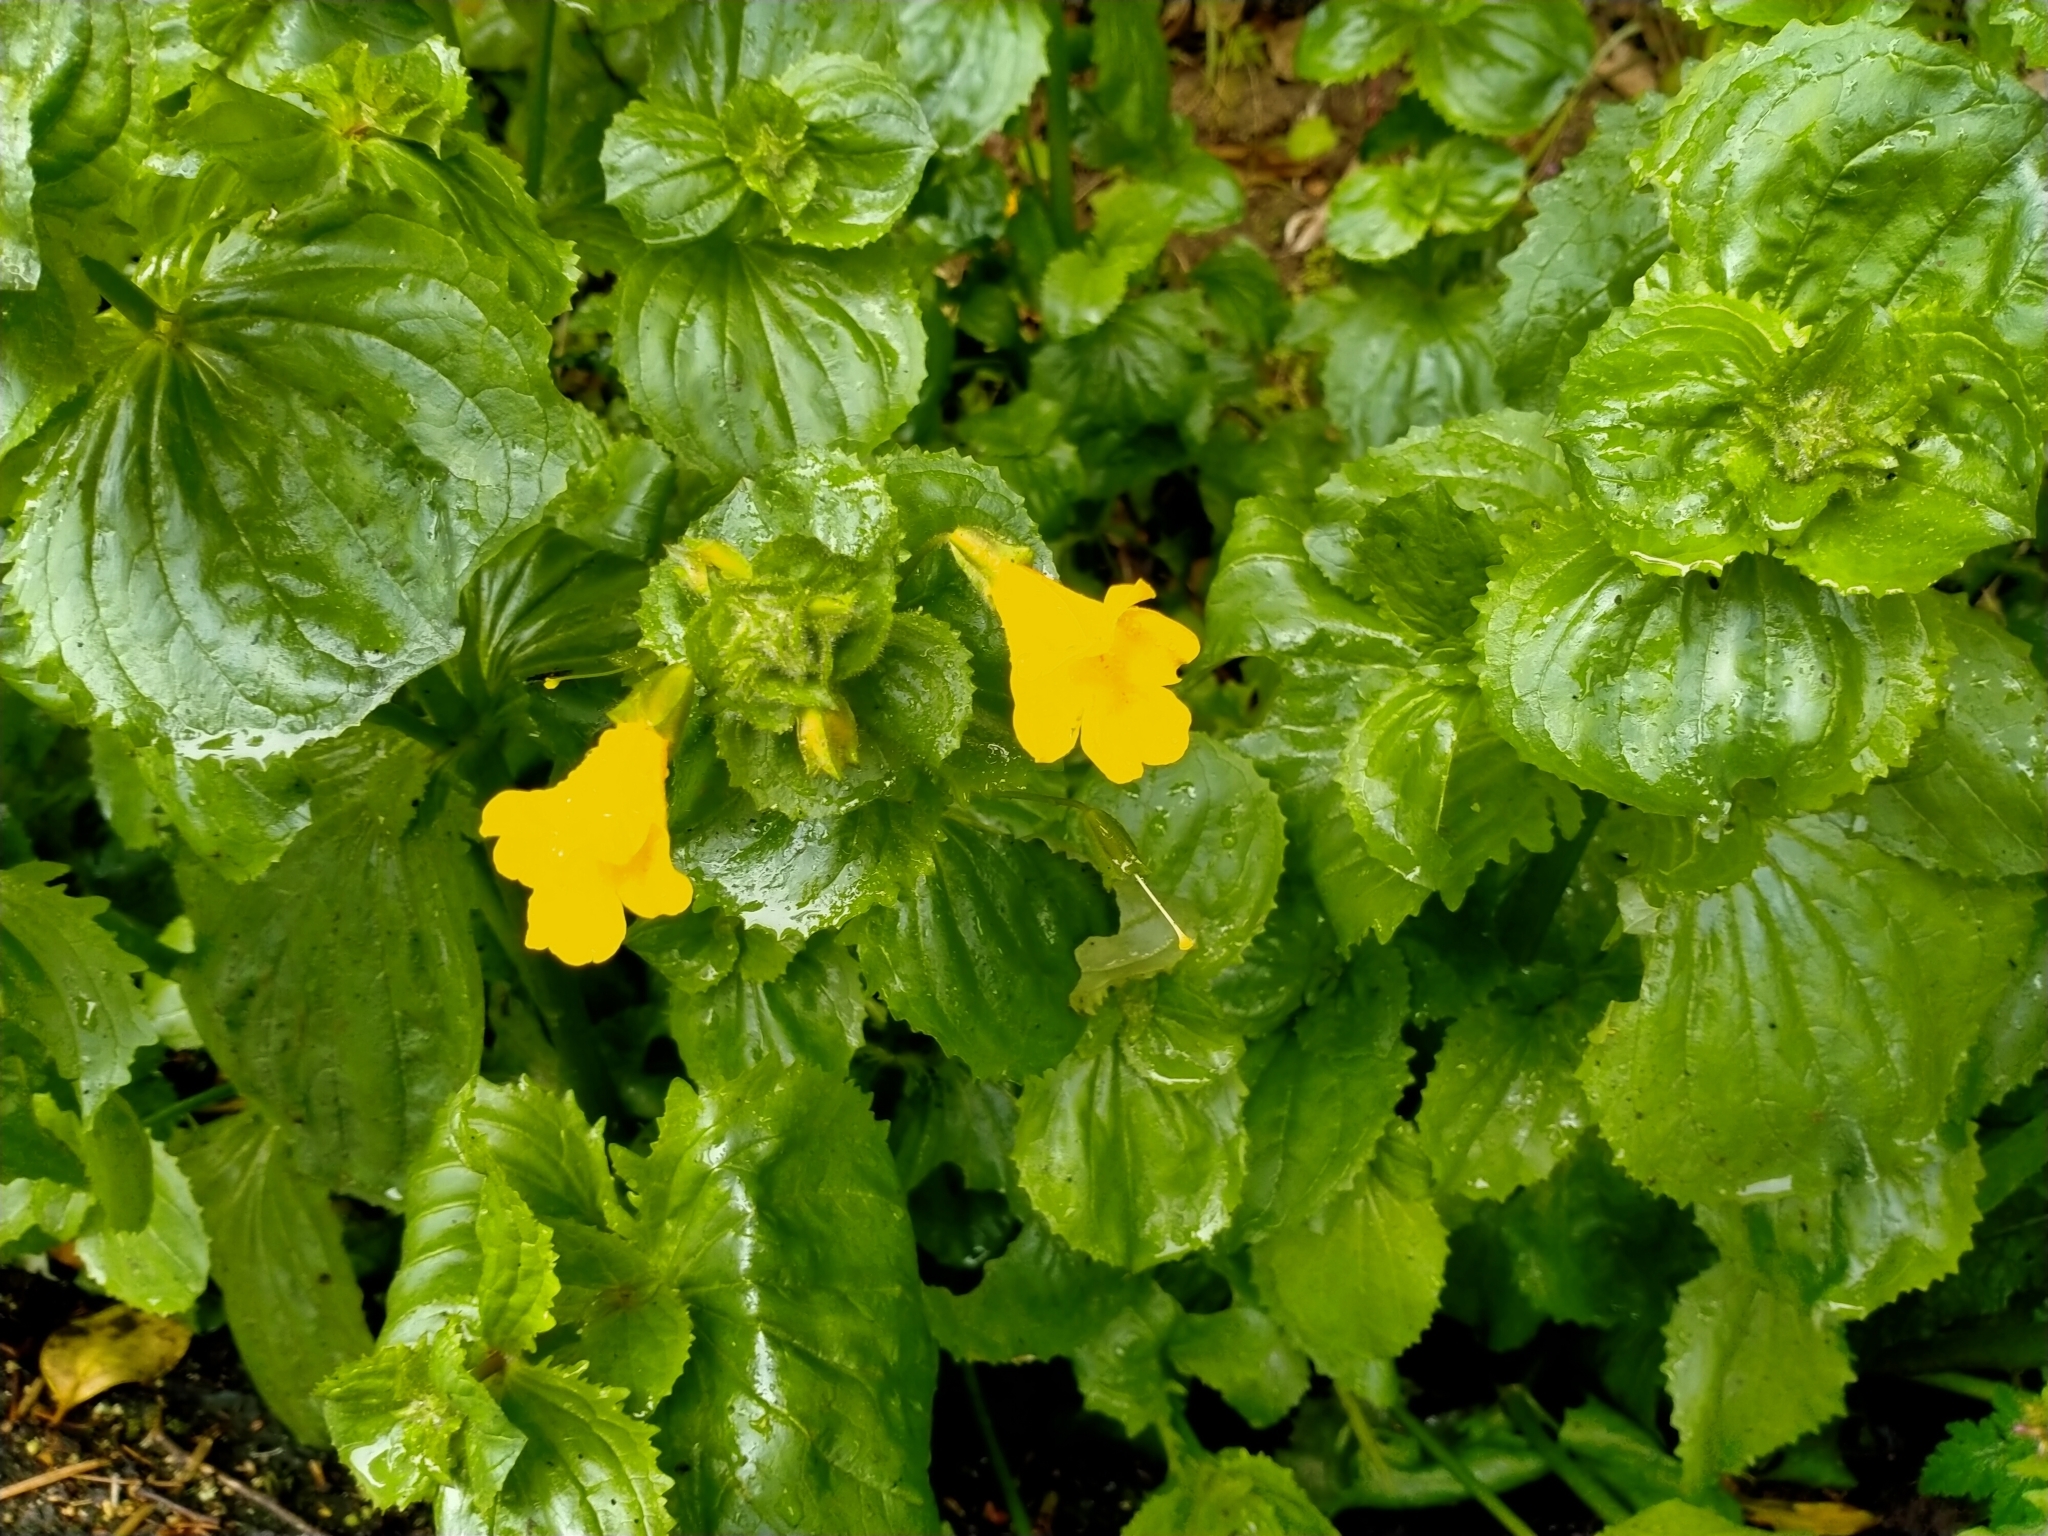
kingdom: Plantae
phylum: Tracheophyta
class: Magnoliopsida
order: Lamiales
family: Phrymaceae
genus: Erythranthe
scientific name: Erythranthe guttata
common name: Monkeyflower
